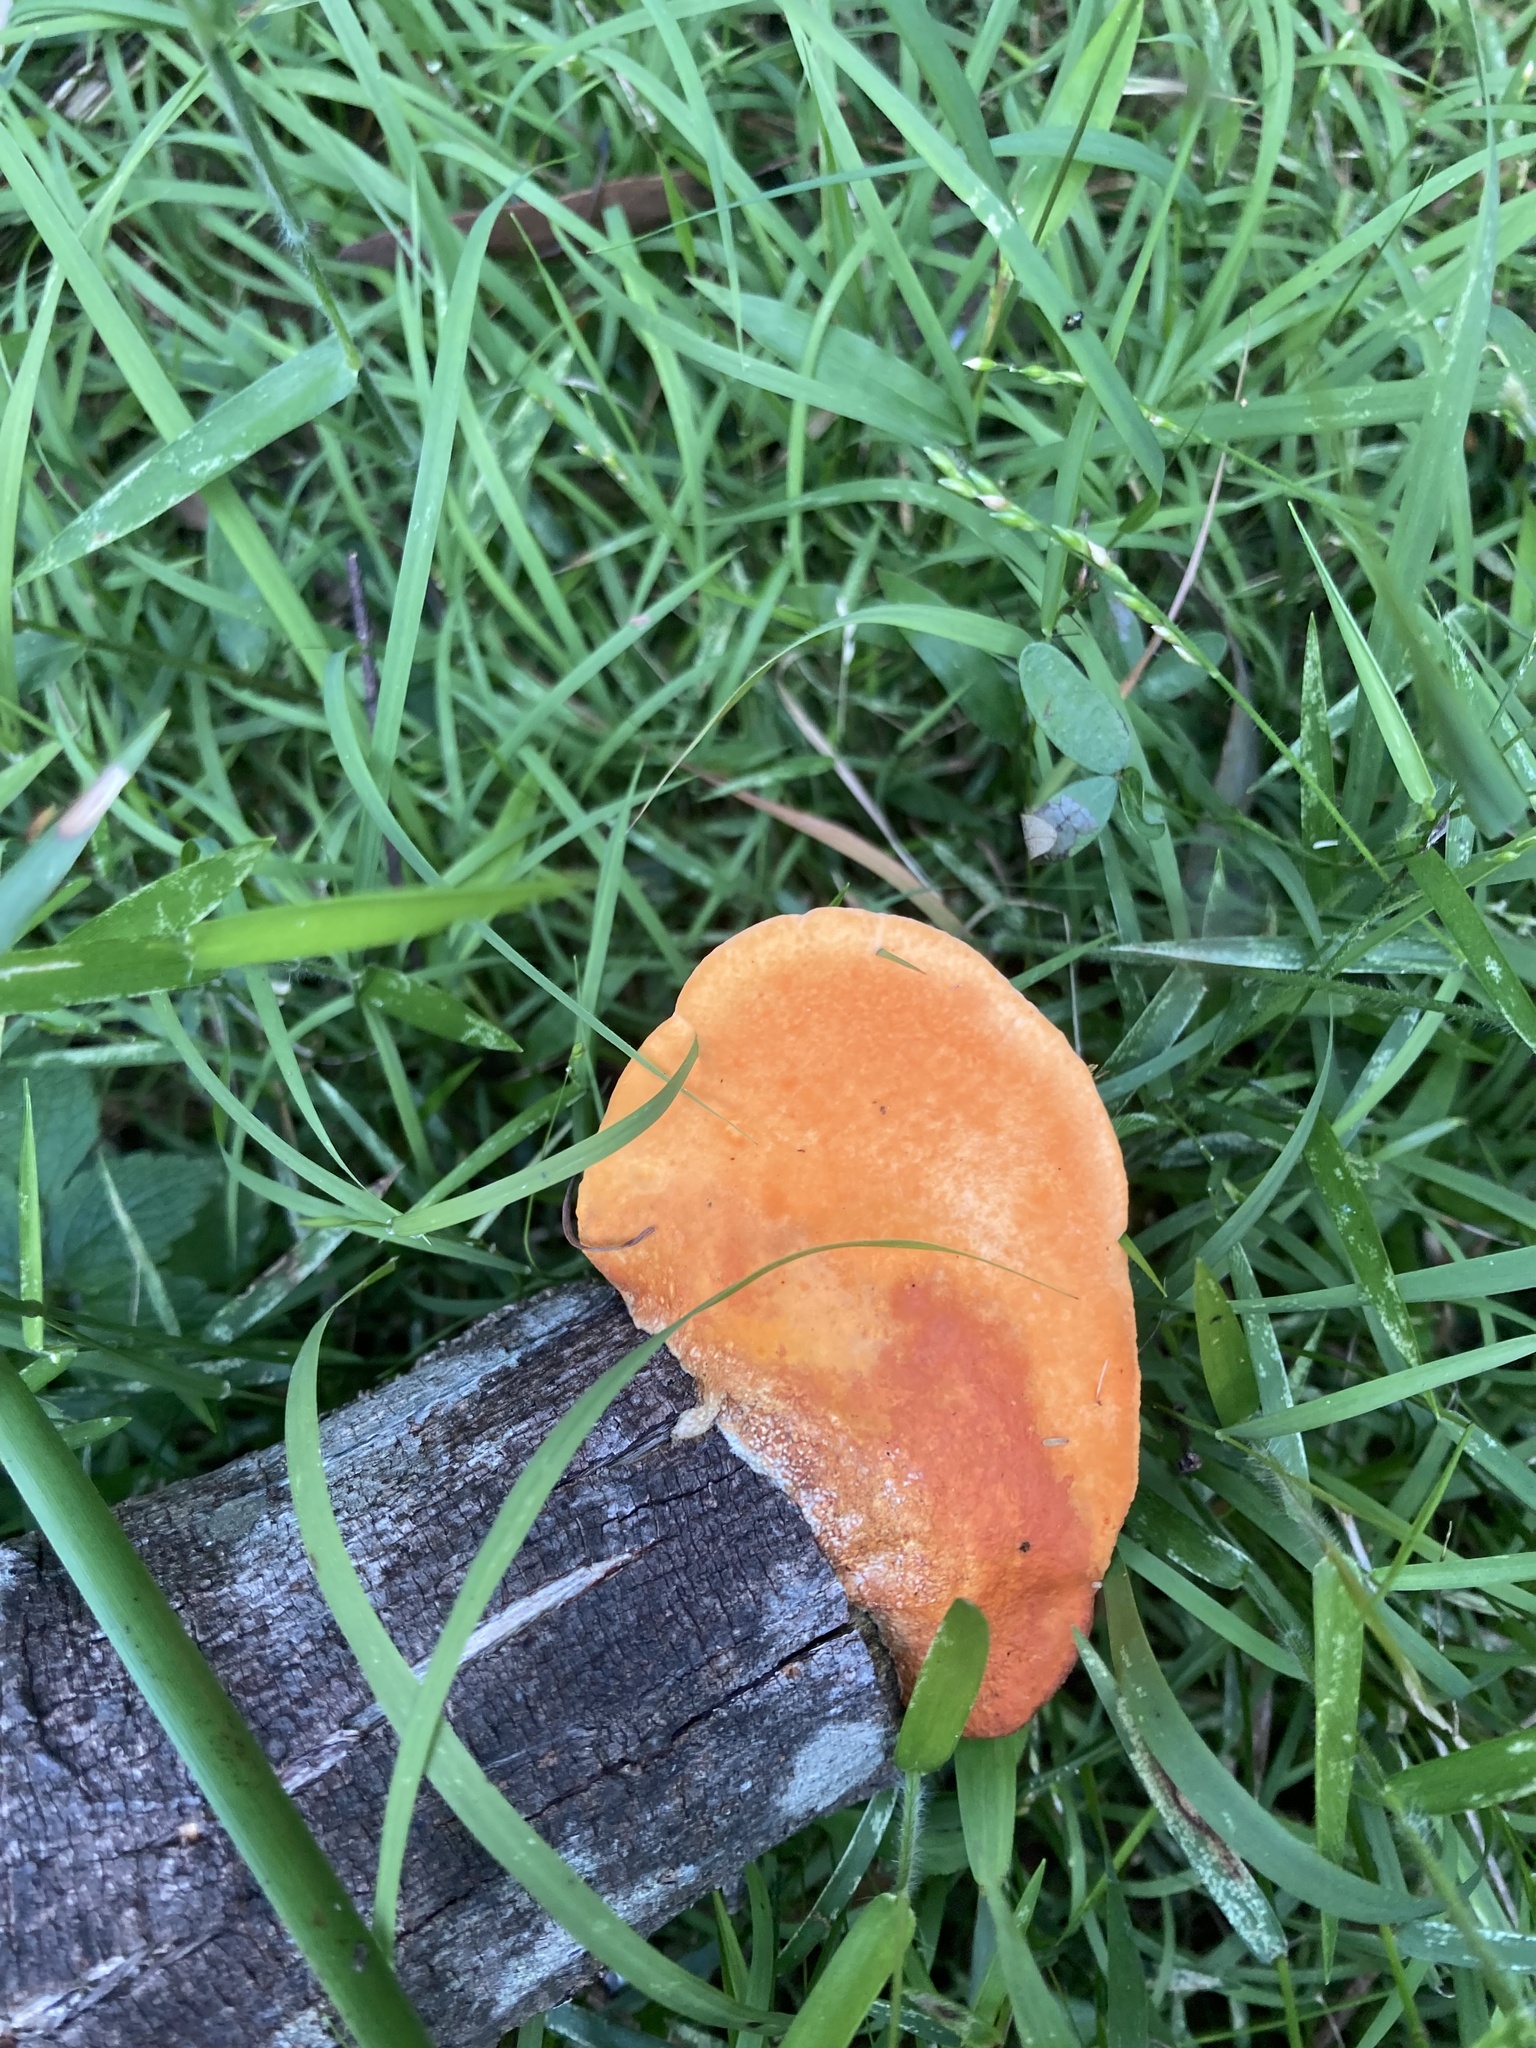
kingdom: Fungi
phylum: Basidiomycota
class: Agaricomycetes
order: Polyporales
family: Polyporaceae
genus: Trametes
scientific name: Trametes coccinea
